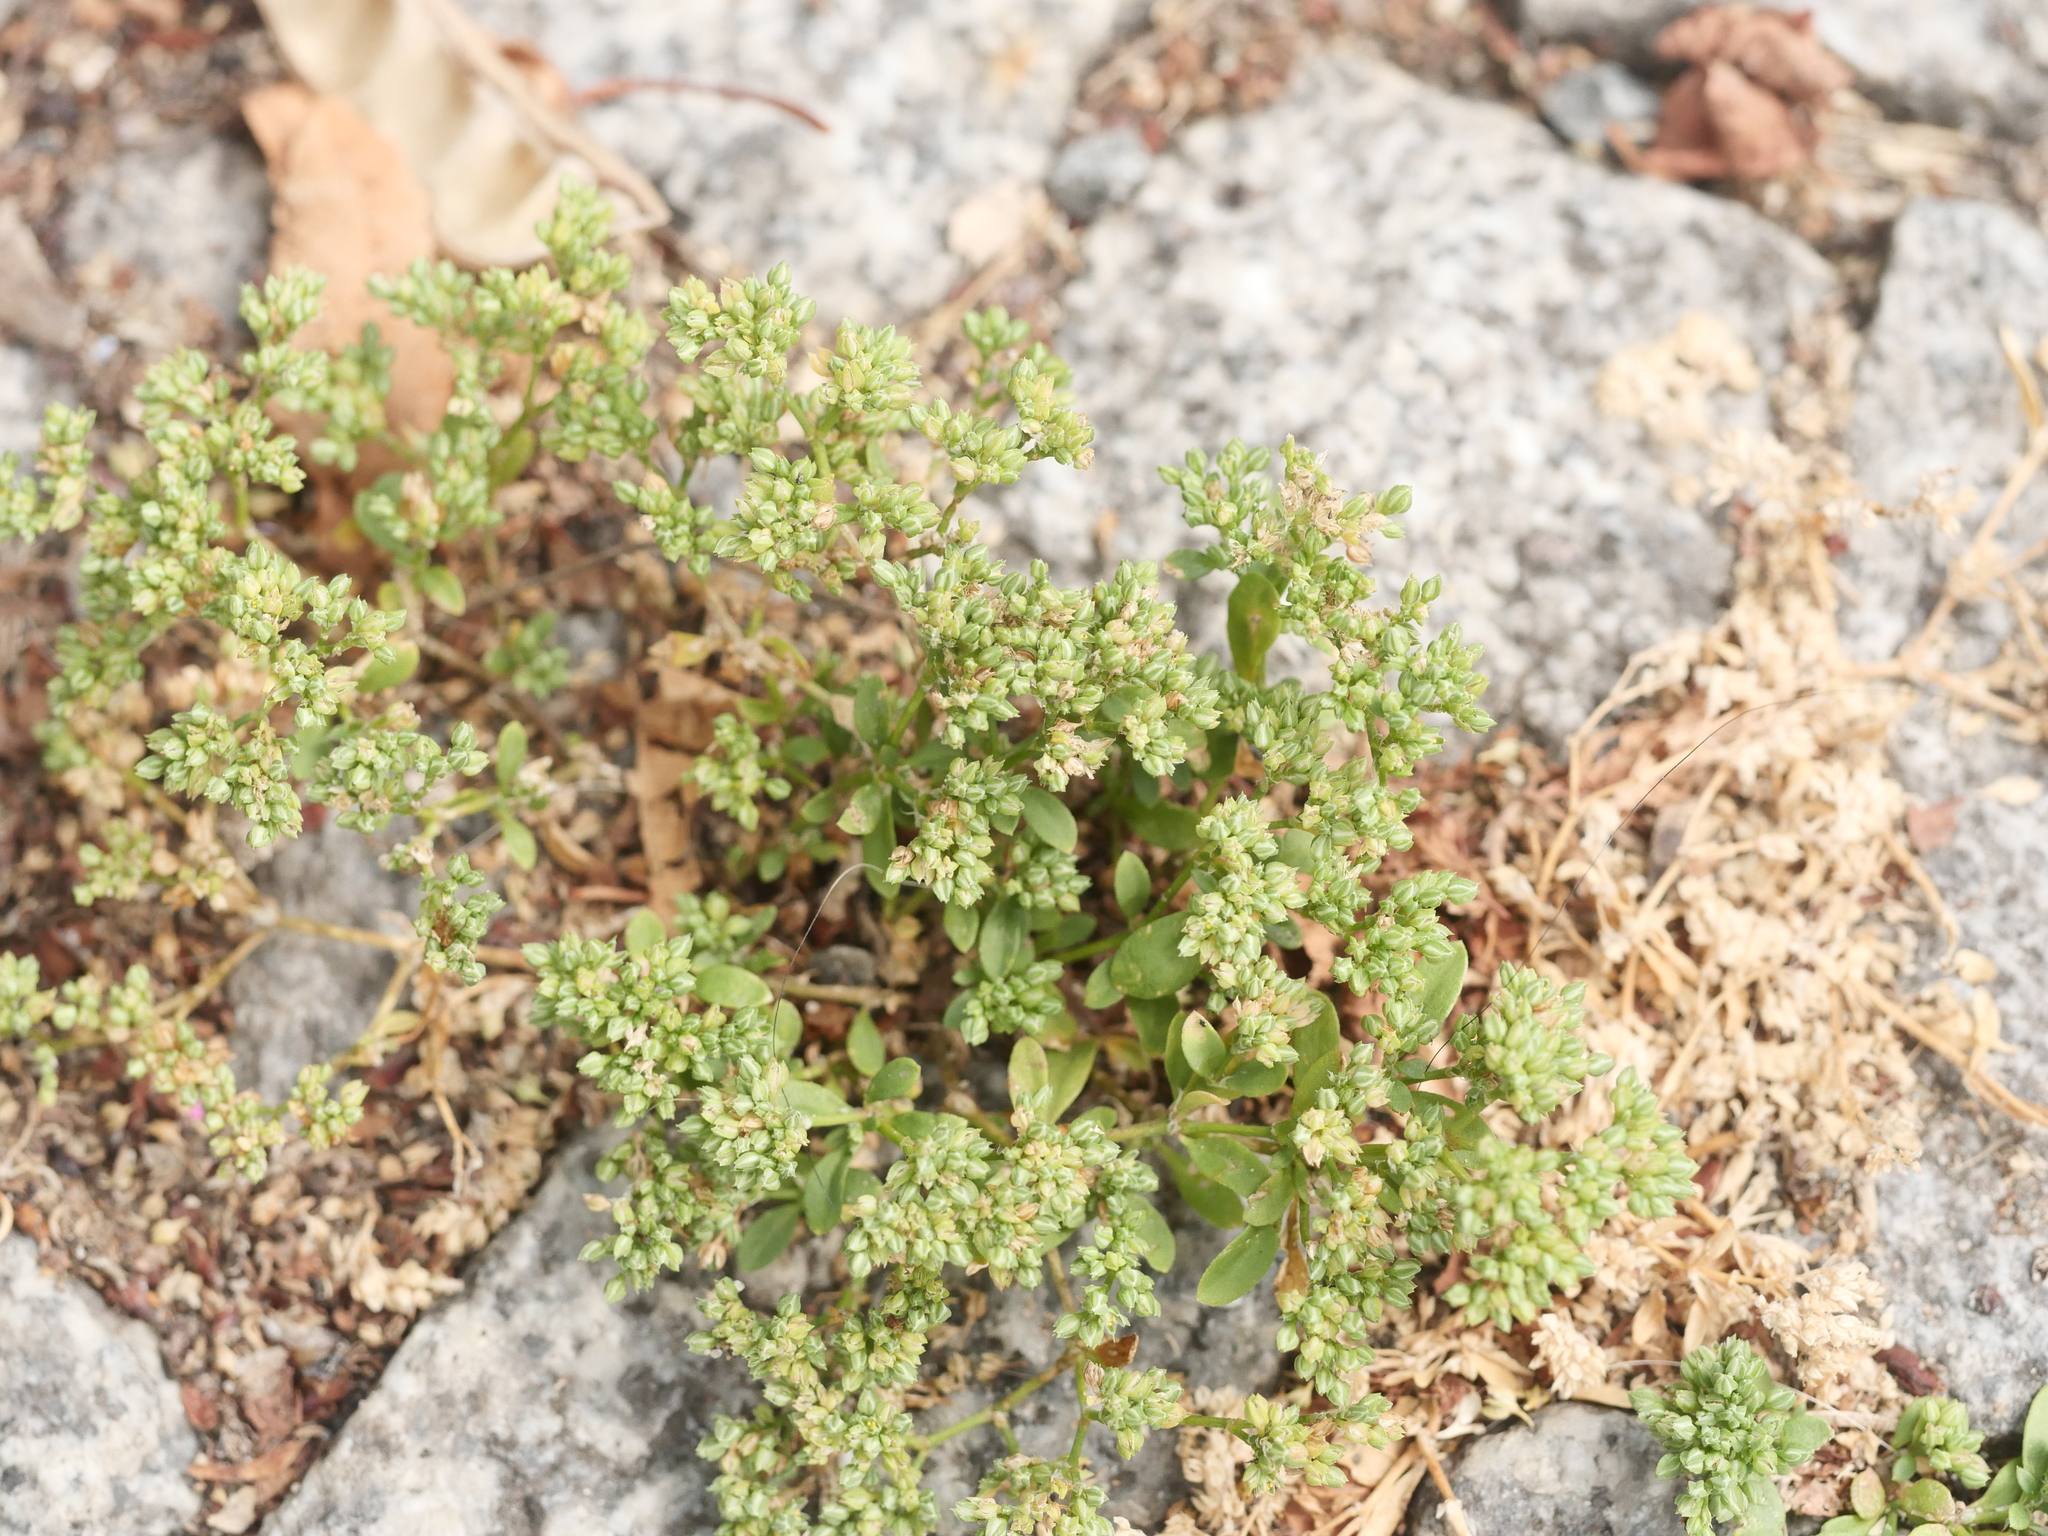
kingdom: Plantae
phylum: Tracheophyta
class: Magnoliopsida
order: Caryophyllales
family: Caryophyllaceae
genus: Polycarpon
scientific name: Polycarpon tetraphyllum
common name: Four-leaved all-seed
